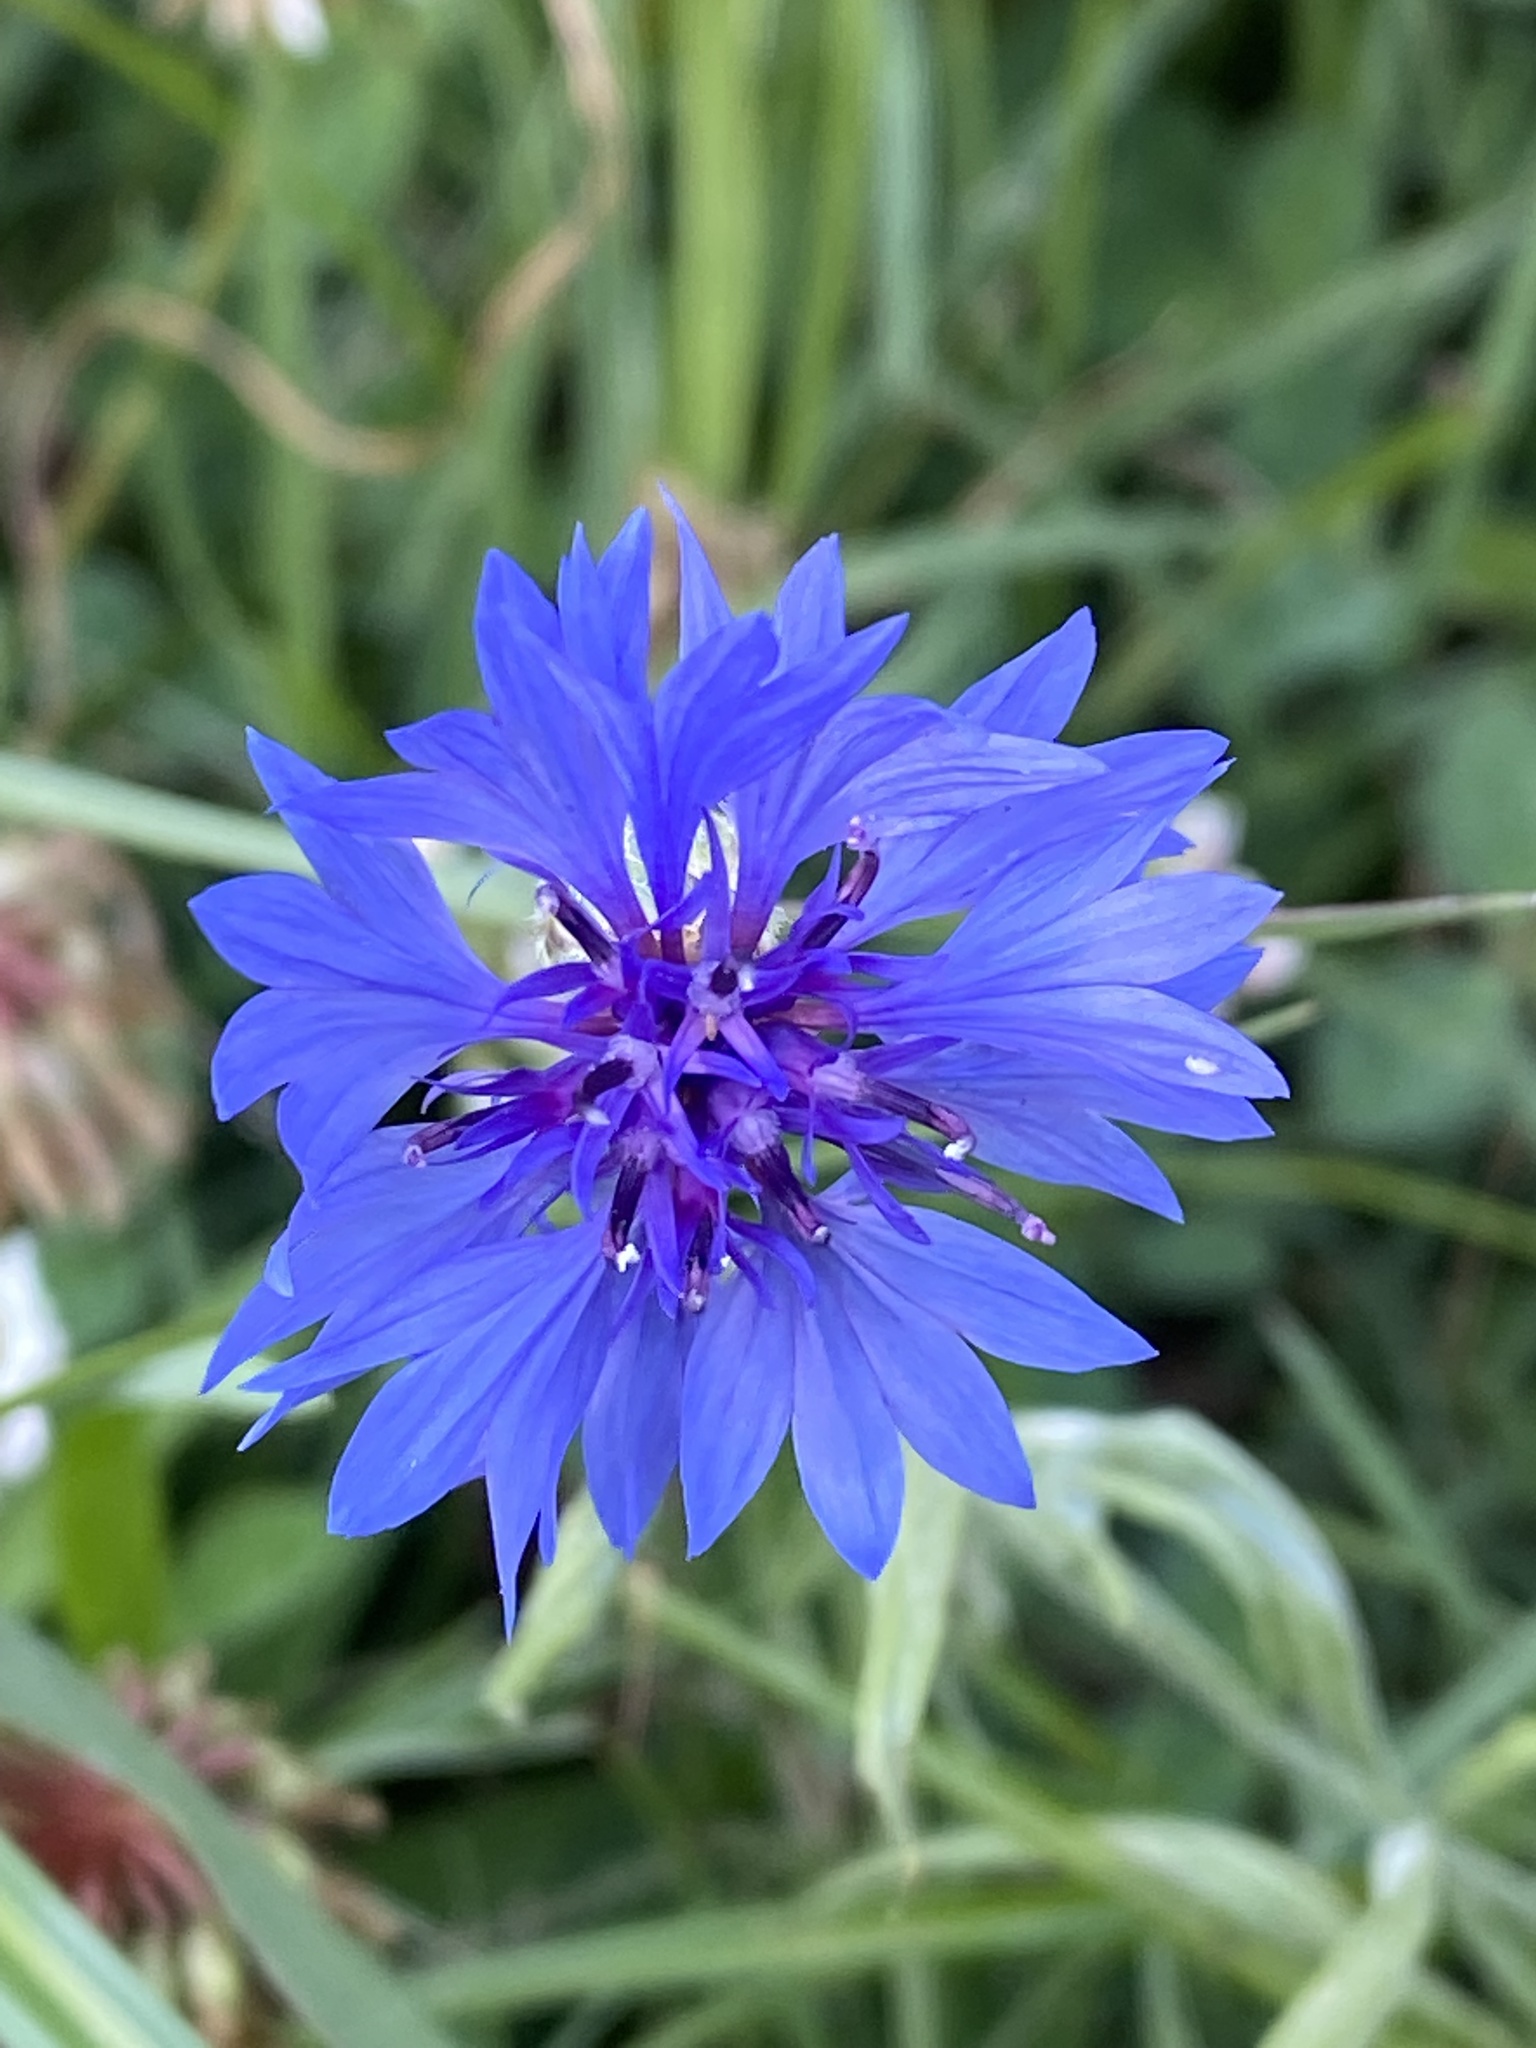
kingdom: Plantae
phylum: Tracheophyta
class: Magnoliopsida
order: Asterales
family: Asteraceae
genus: Centaurea
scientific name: Centaurea cyanus
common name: Cornflower
